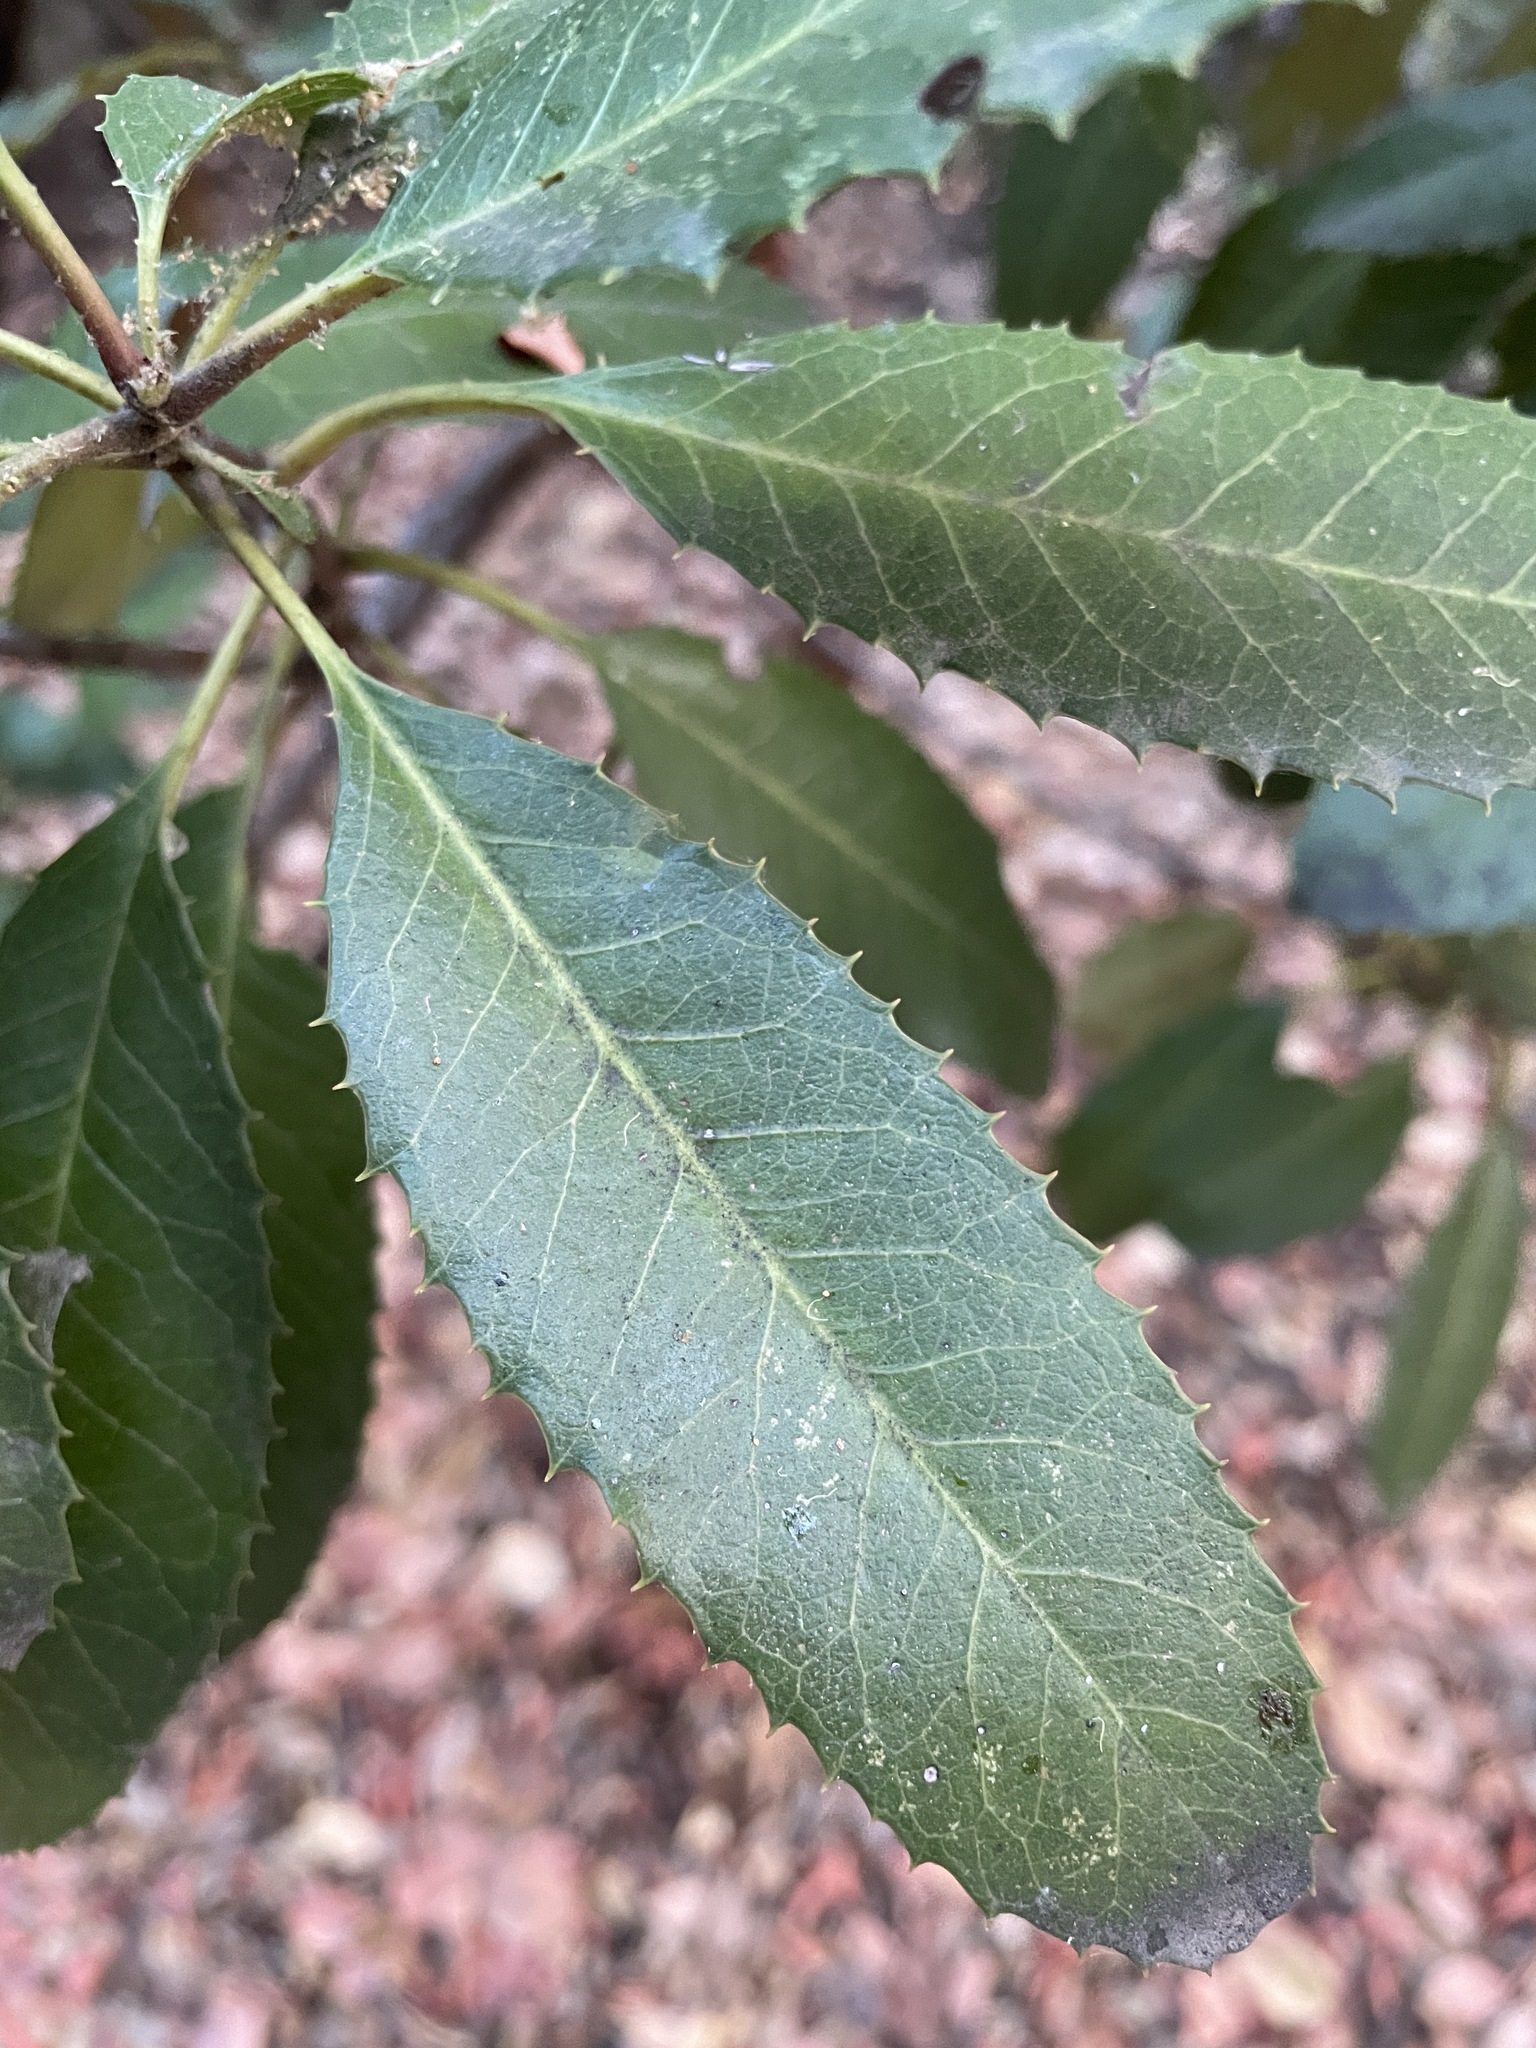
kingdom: Plantae
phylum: Tracheophyta
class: Magnoliopsida
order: Rosales
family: Rosaceae
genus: Heteromeles
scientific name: Heteromeles arbutifolia
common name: California-holly
